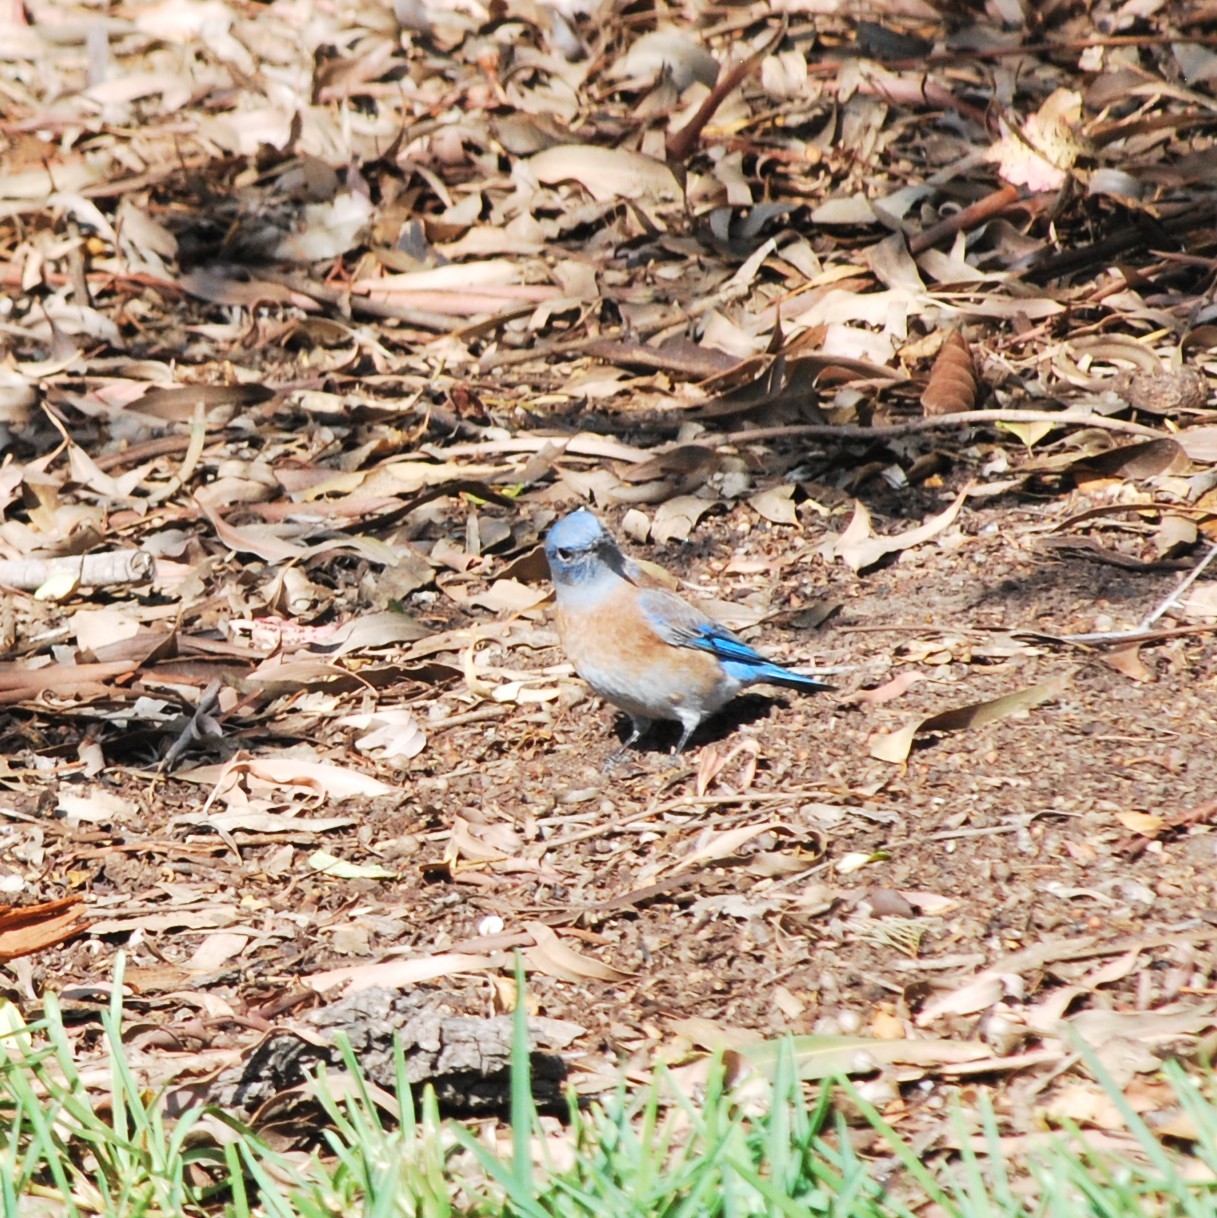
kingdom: Animalia
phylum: Chordata
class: Aves
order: Passeriformes
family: Turdidae
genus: Sialia
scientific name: Sialia mexicana
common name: Western bluebird
